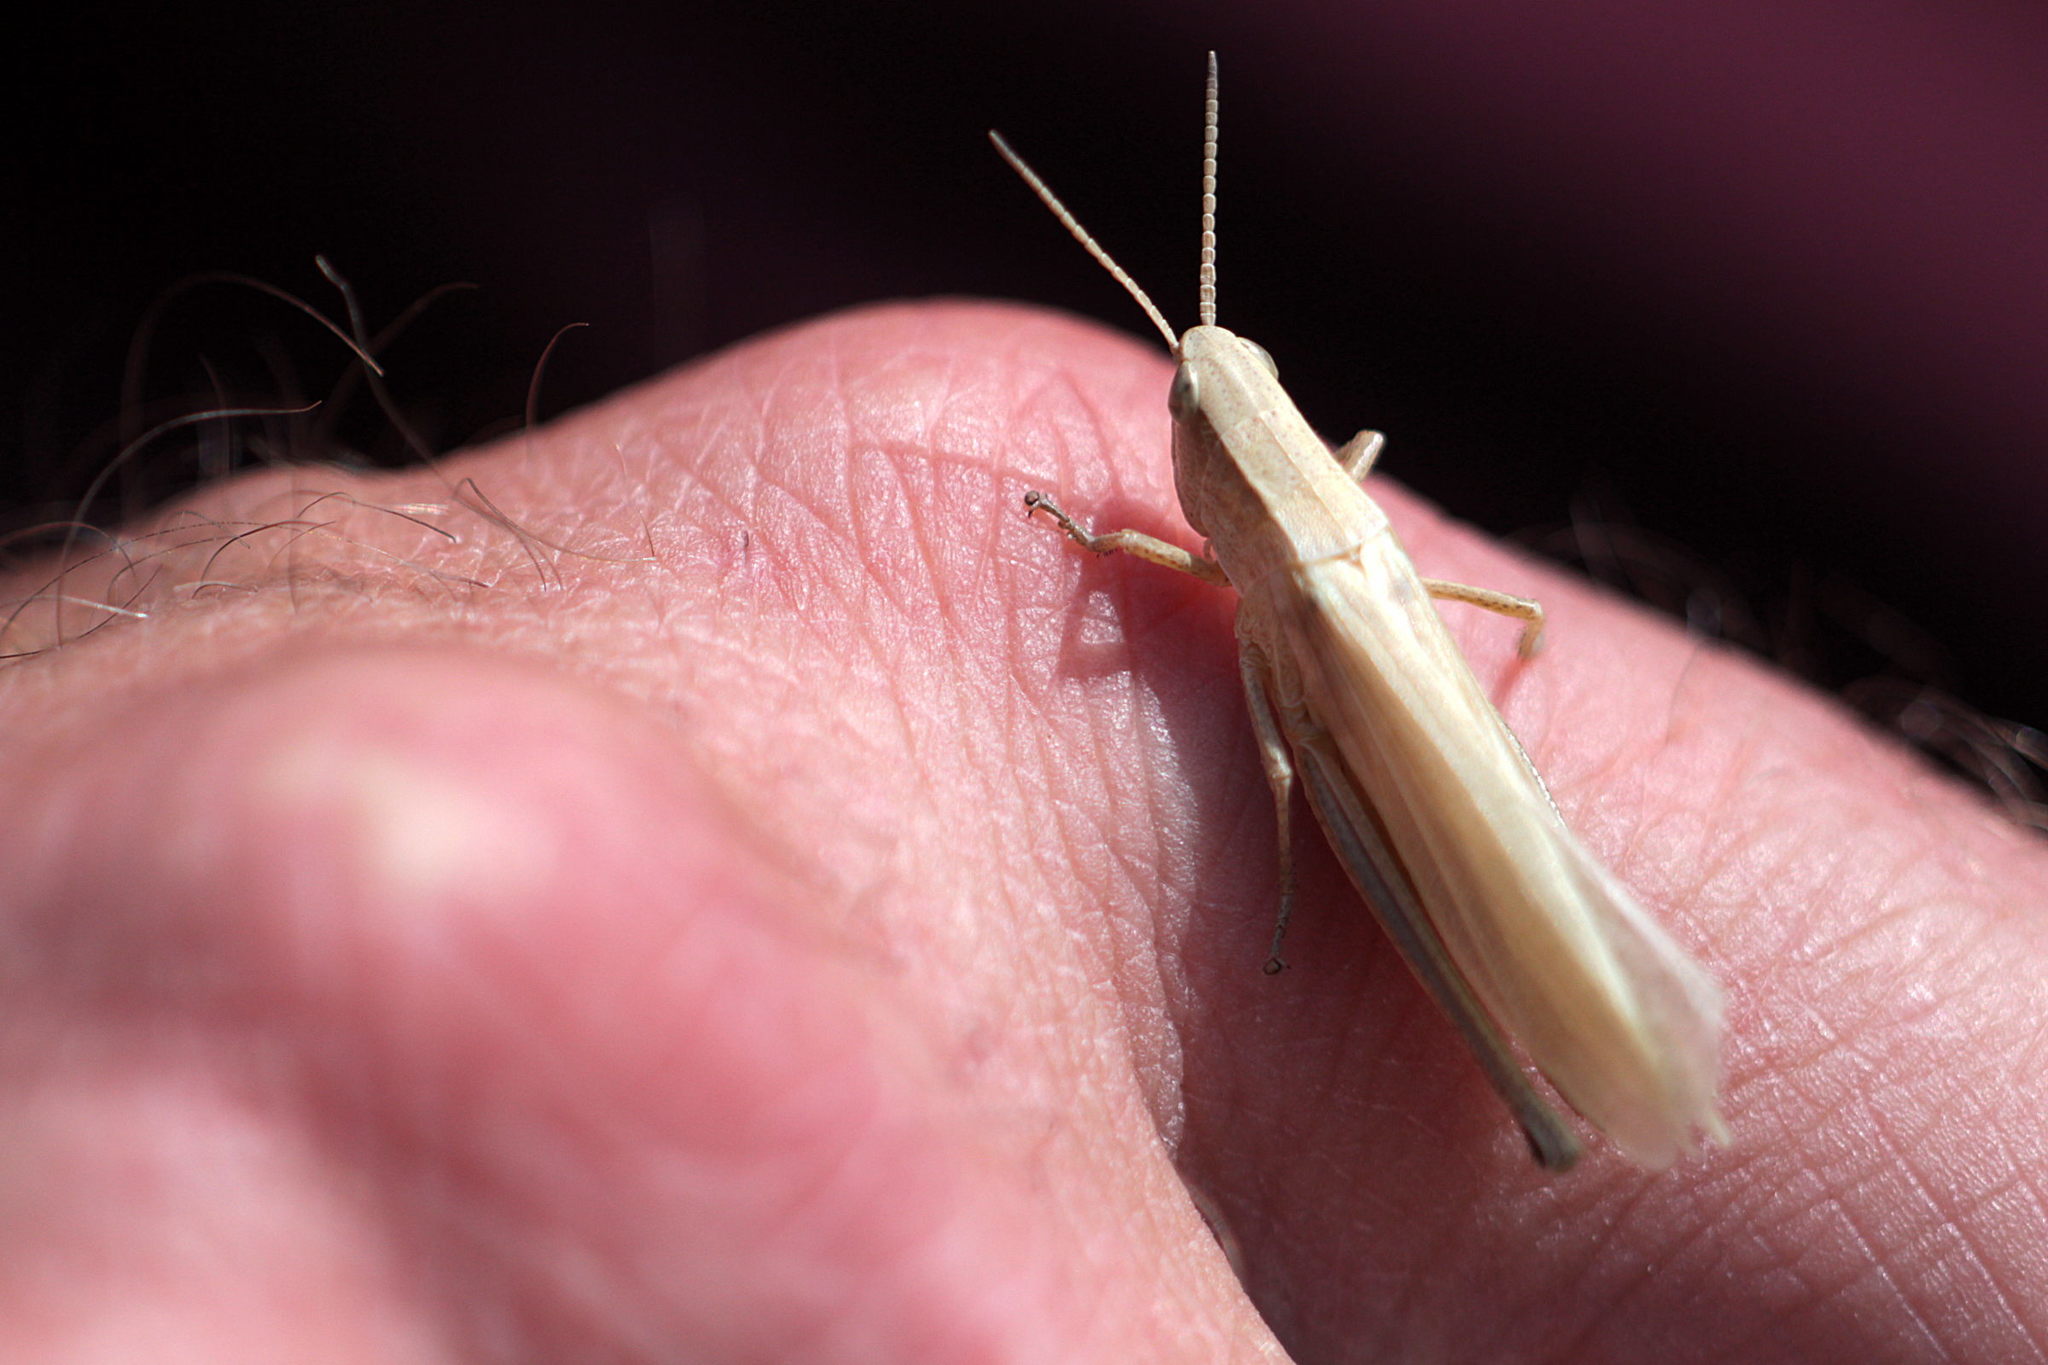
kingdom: Animalia
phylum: Arthropoda
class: Insecta
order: Orthoptera
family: Acrididae
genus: Chrysochraon
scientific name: Chrysochraon dispar
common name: Large gold grasshopper
